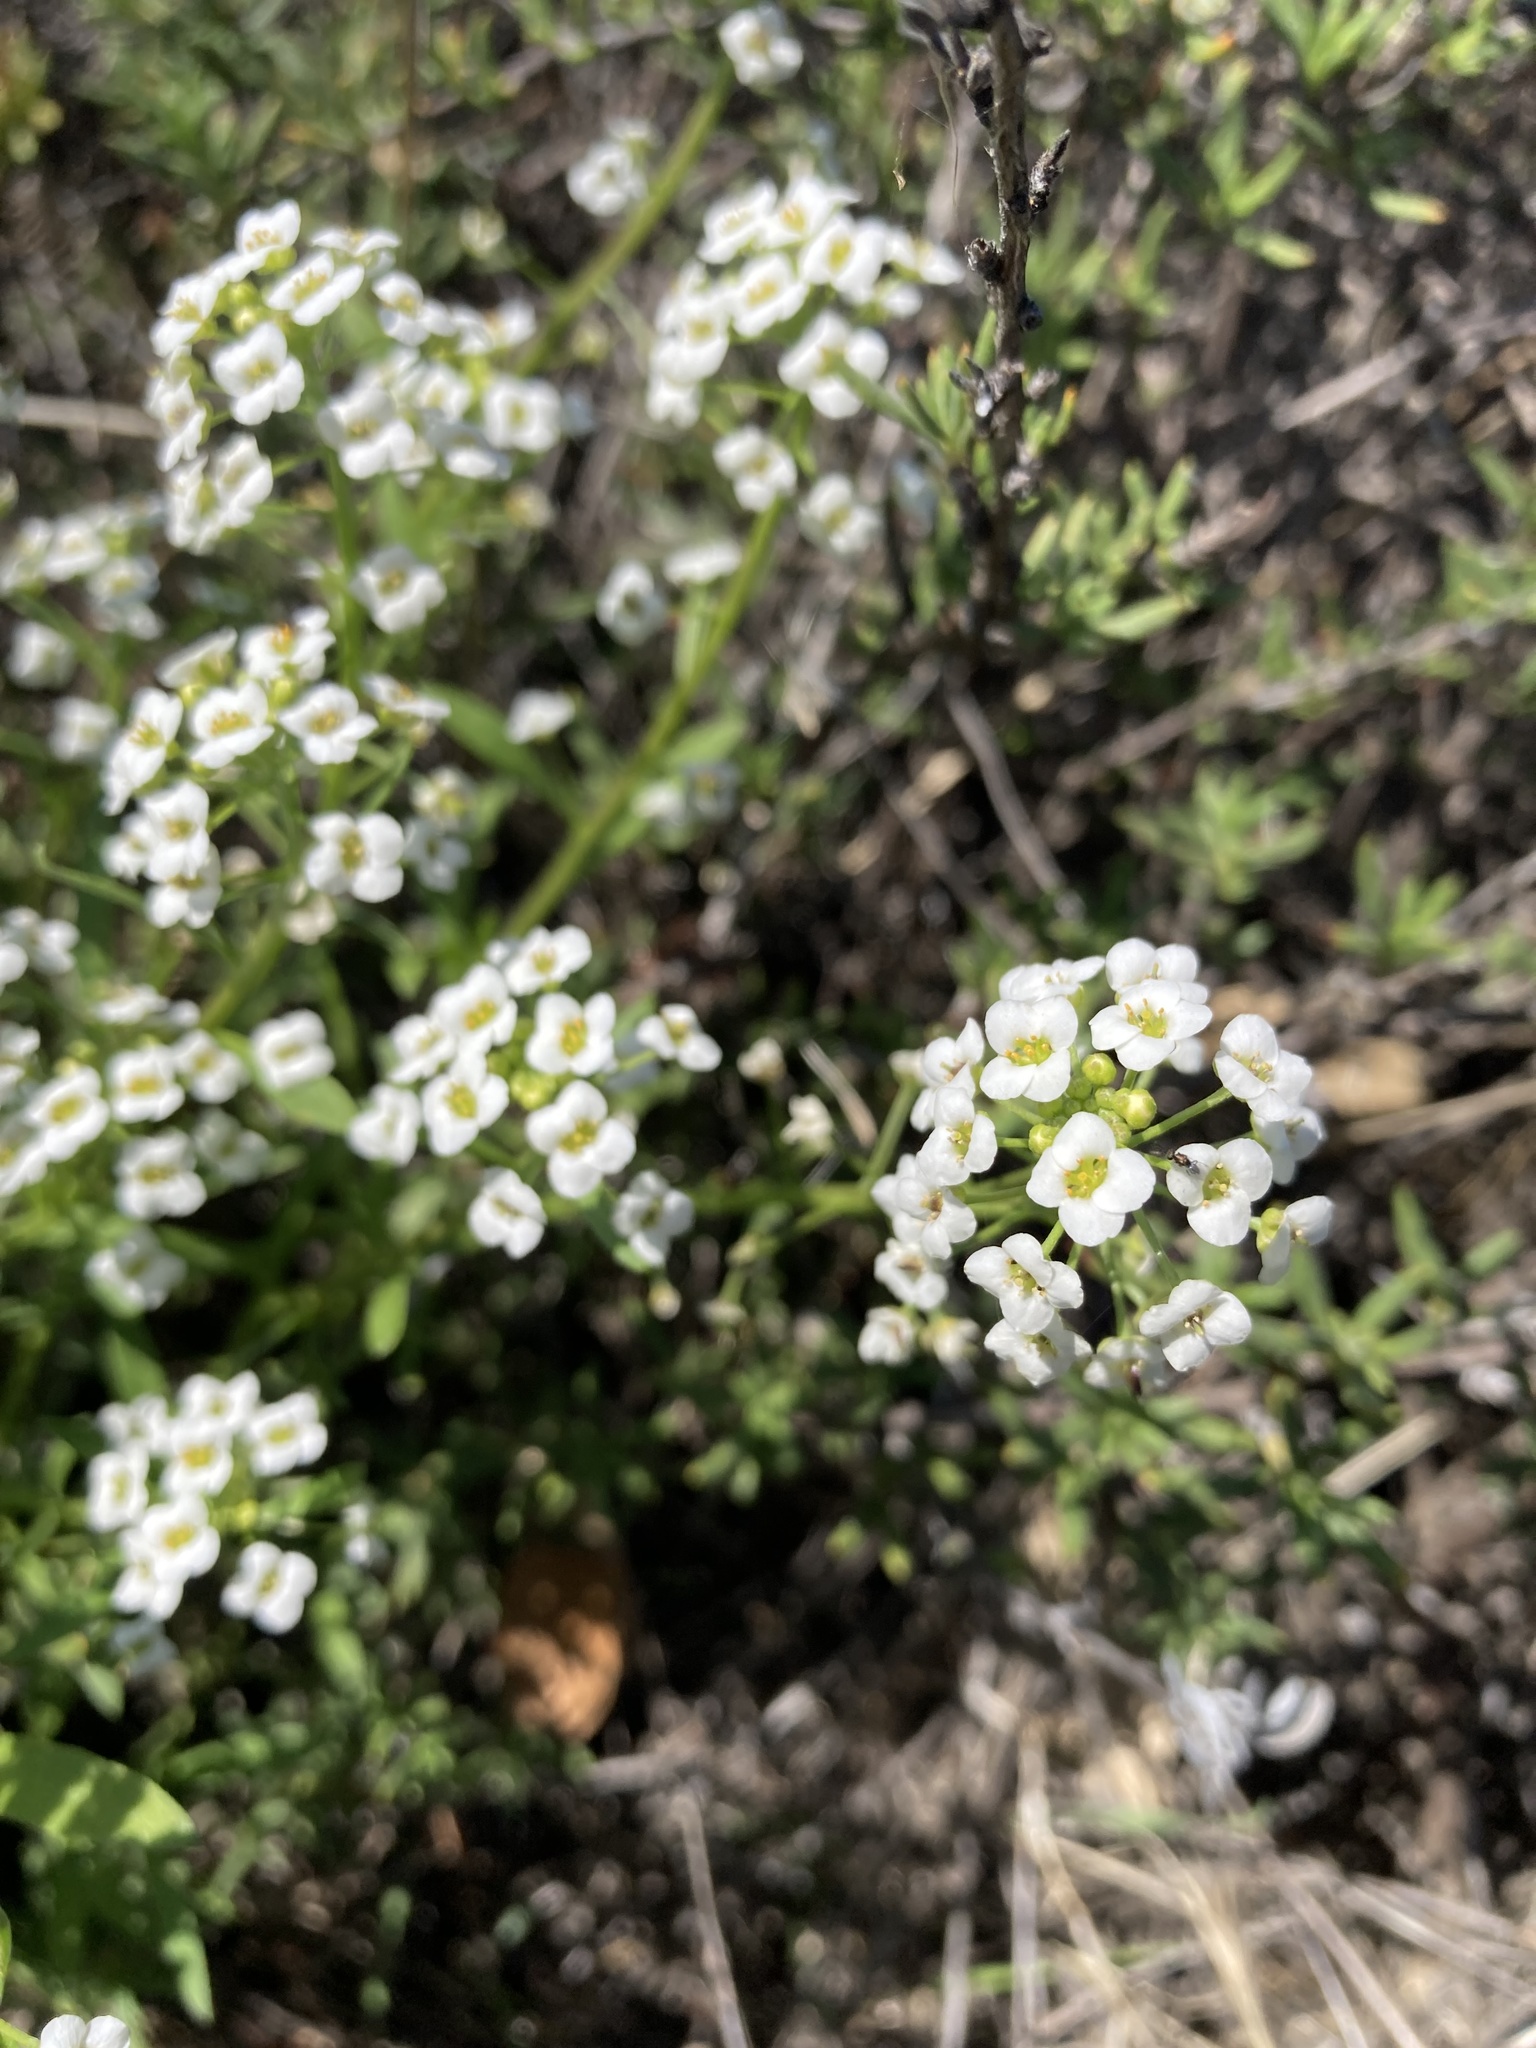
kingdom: Plantae
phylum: Tracheophyta
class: Magnoliopsida
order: Brassicales
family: Brassicaceae
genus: Lobularia
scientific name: Lobularia maritima
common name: Sweet alison
